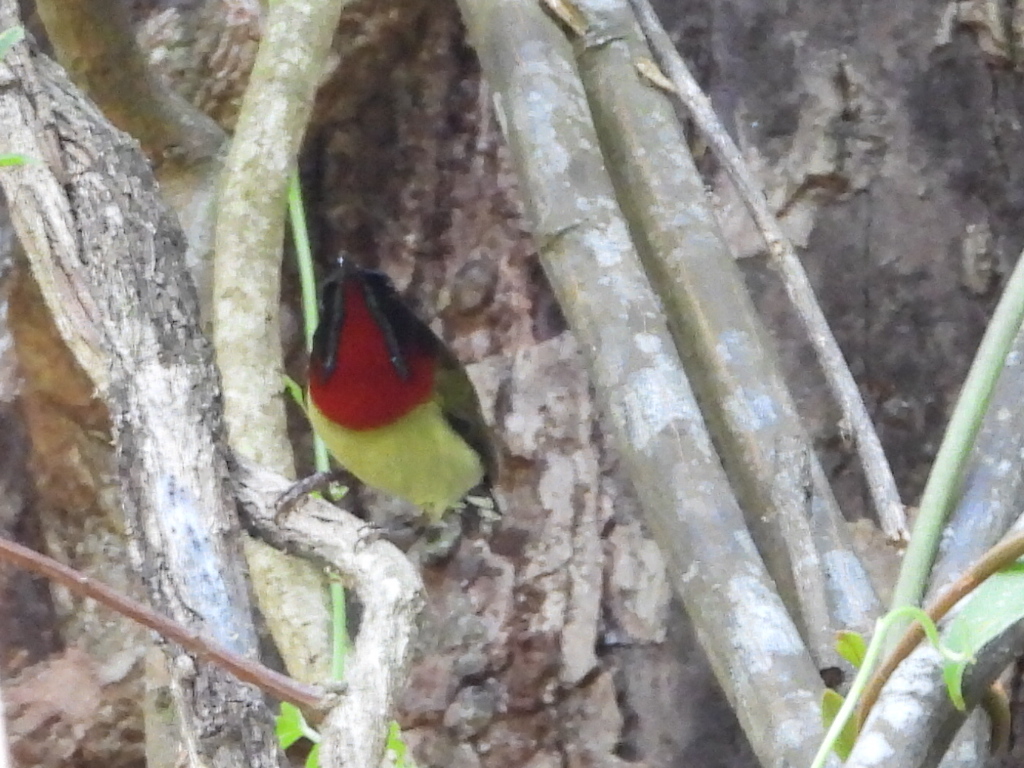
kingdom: Animalia
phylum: Chordata
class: Aves
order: Passeriformes
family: Nectariniidae
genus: Aethopyga
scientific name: Aethopyga christinae
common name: Fork-tailed sunbird
